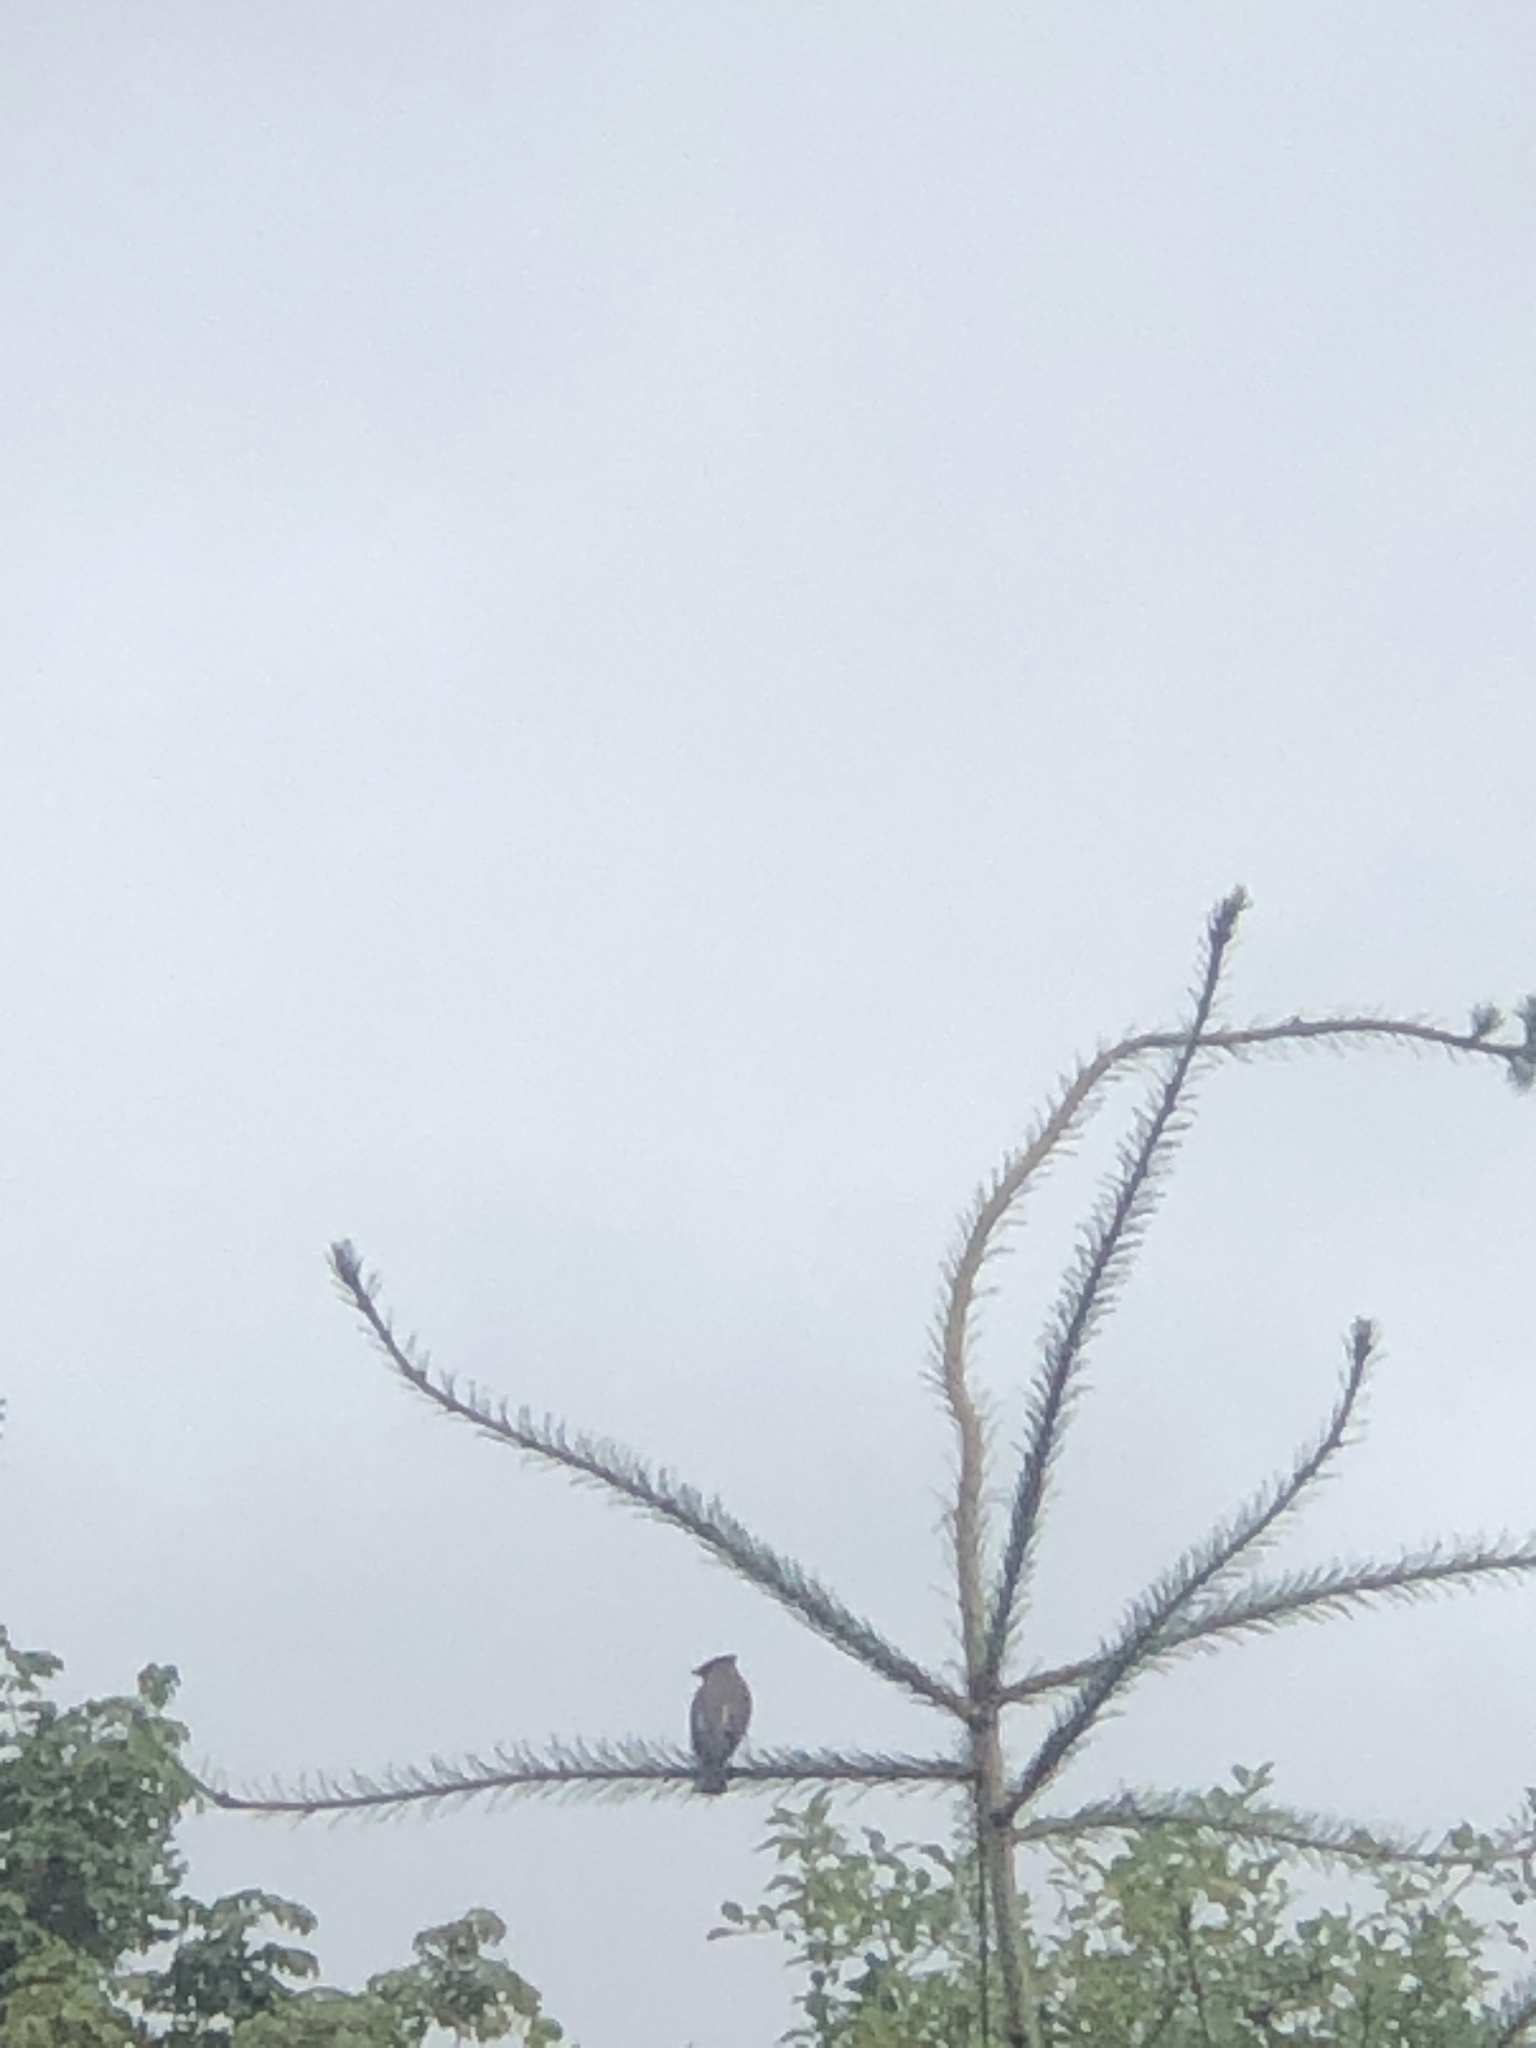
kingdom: Animalia
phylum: Chordata
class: Aves
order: Passeriformes
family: Bombycillidae
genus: Bombycilla
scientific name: Bombycilla cedrorum
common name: Cedar waxwing
